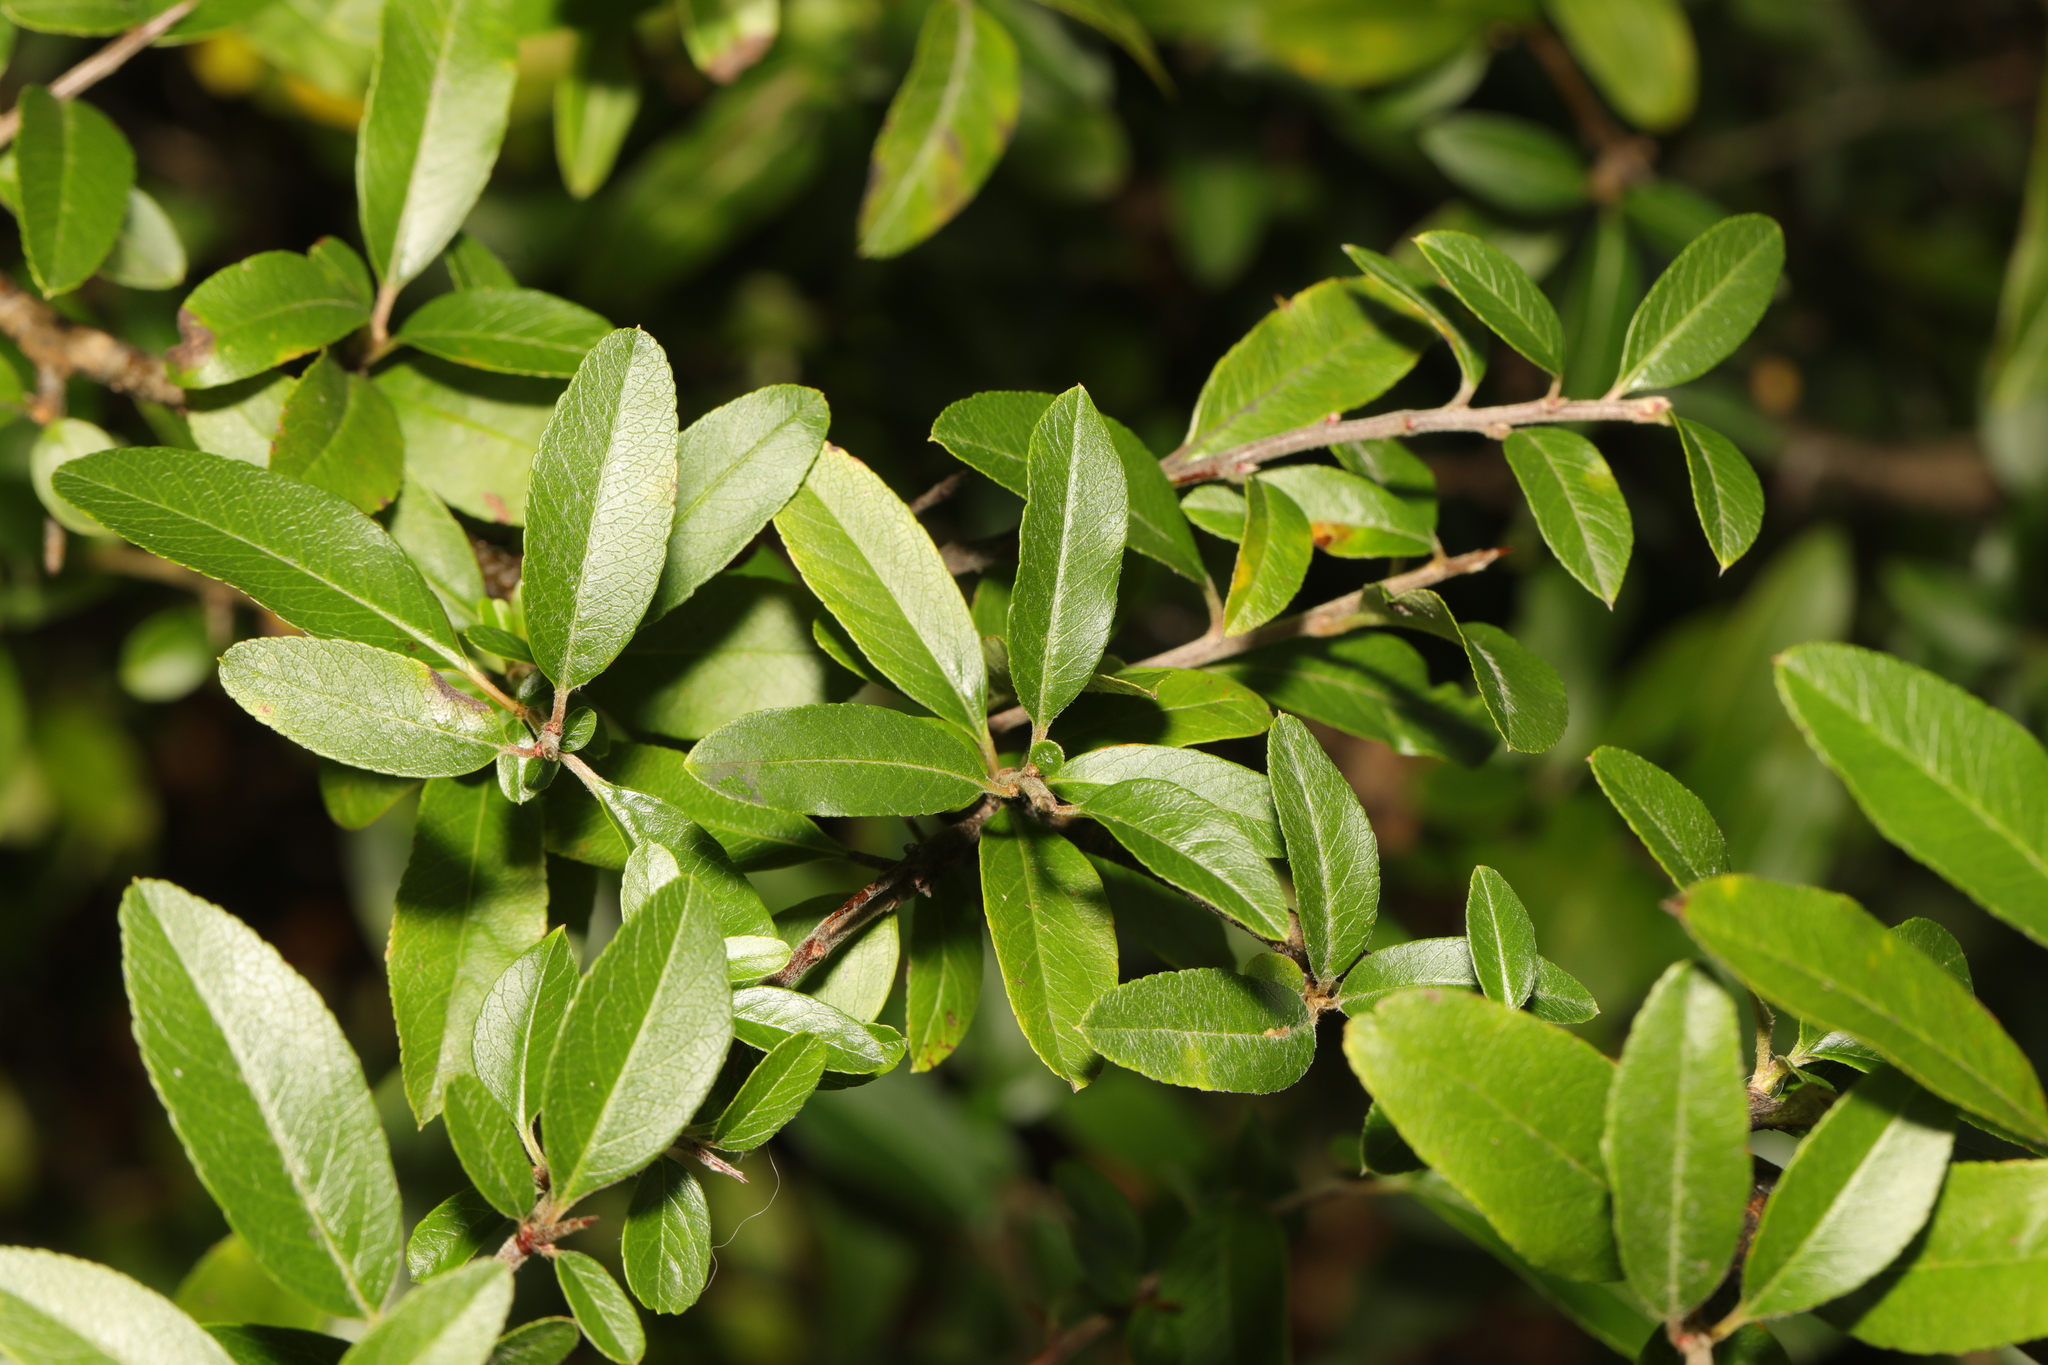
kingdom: Plantae
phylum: Tracheophyta
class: Magnoliopsida
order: Rosales
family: Rosaceae
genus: Pyracantha
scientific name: Pyracantha coccinea
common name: Firethorn
